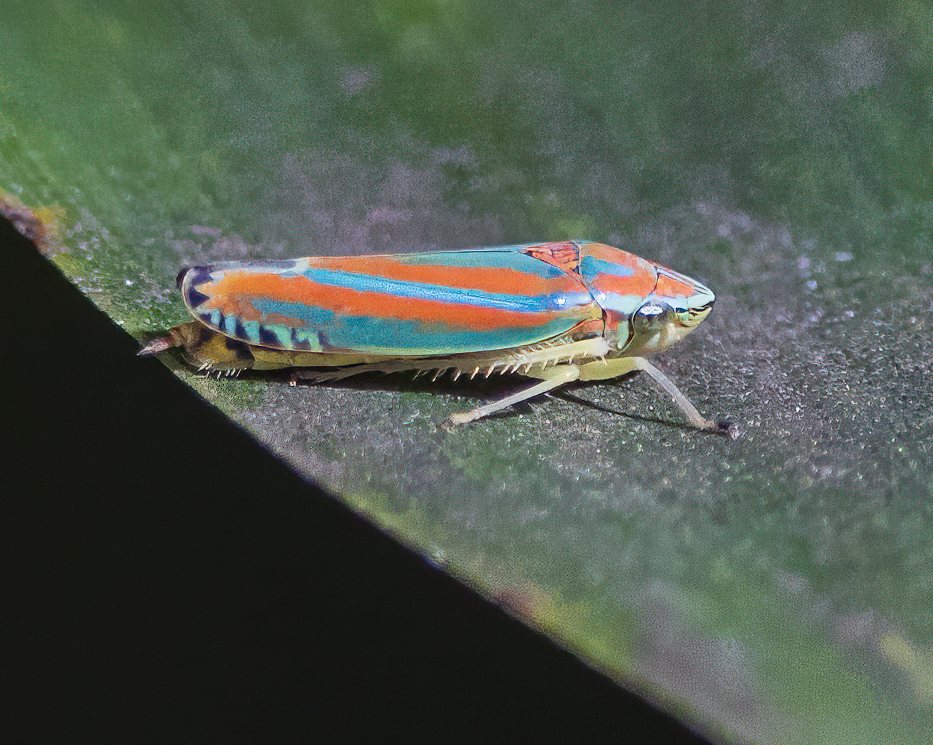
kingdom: Animalia
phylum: Arthropoda
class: Insecta
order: Hemiptera
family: Cicadellidae
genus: Graphocephala
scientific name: Graphocephala versuta
